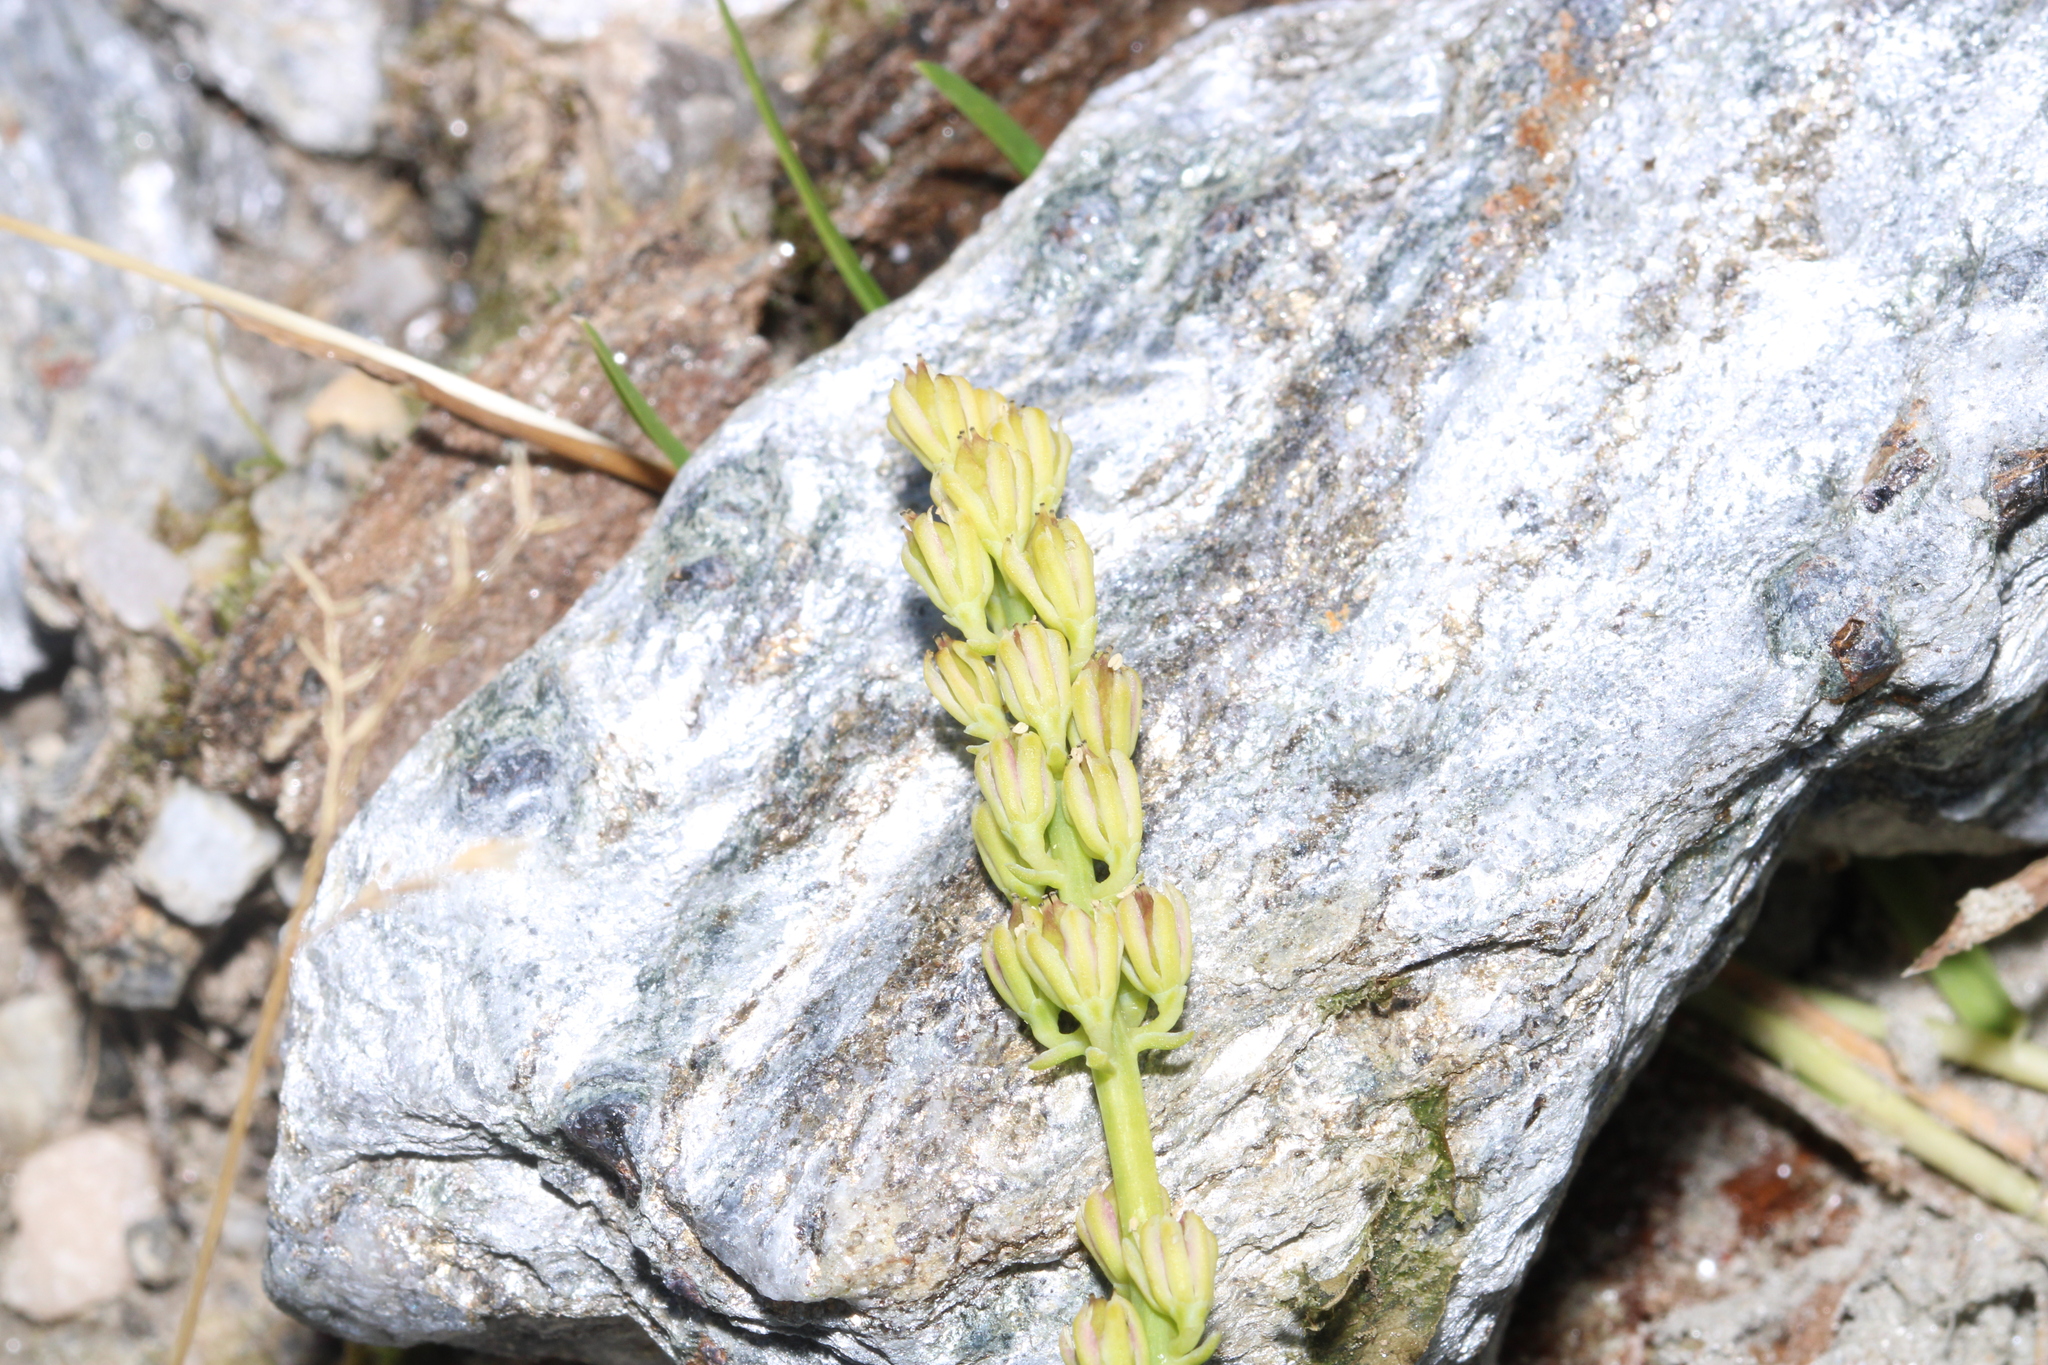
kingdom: Plantae
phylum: Tracheophyta
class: Liliopsida
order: Alismatales
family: Tofieldiaceae
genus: Tofieldia
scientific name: Tofieldia calyculata
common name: German-asphodel
